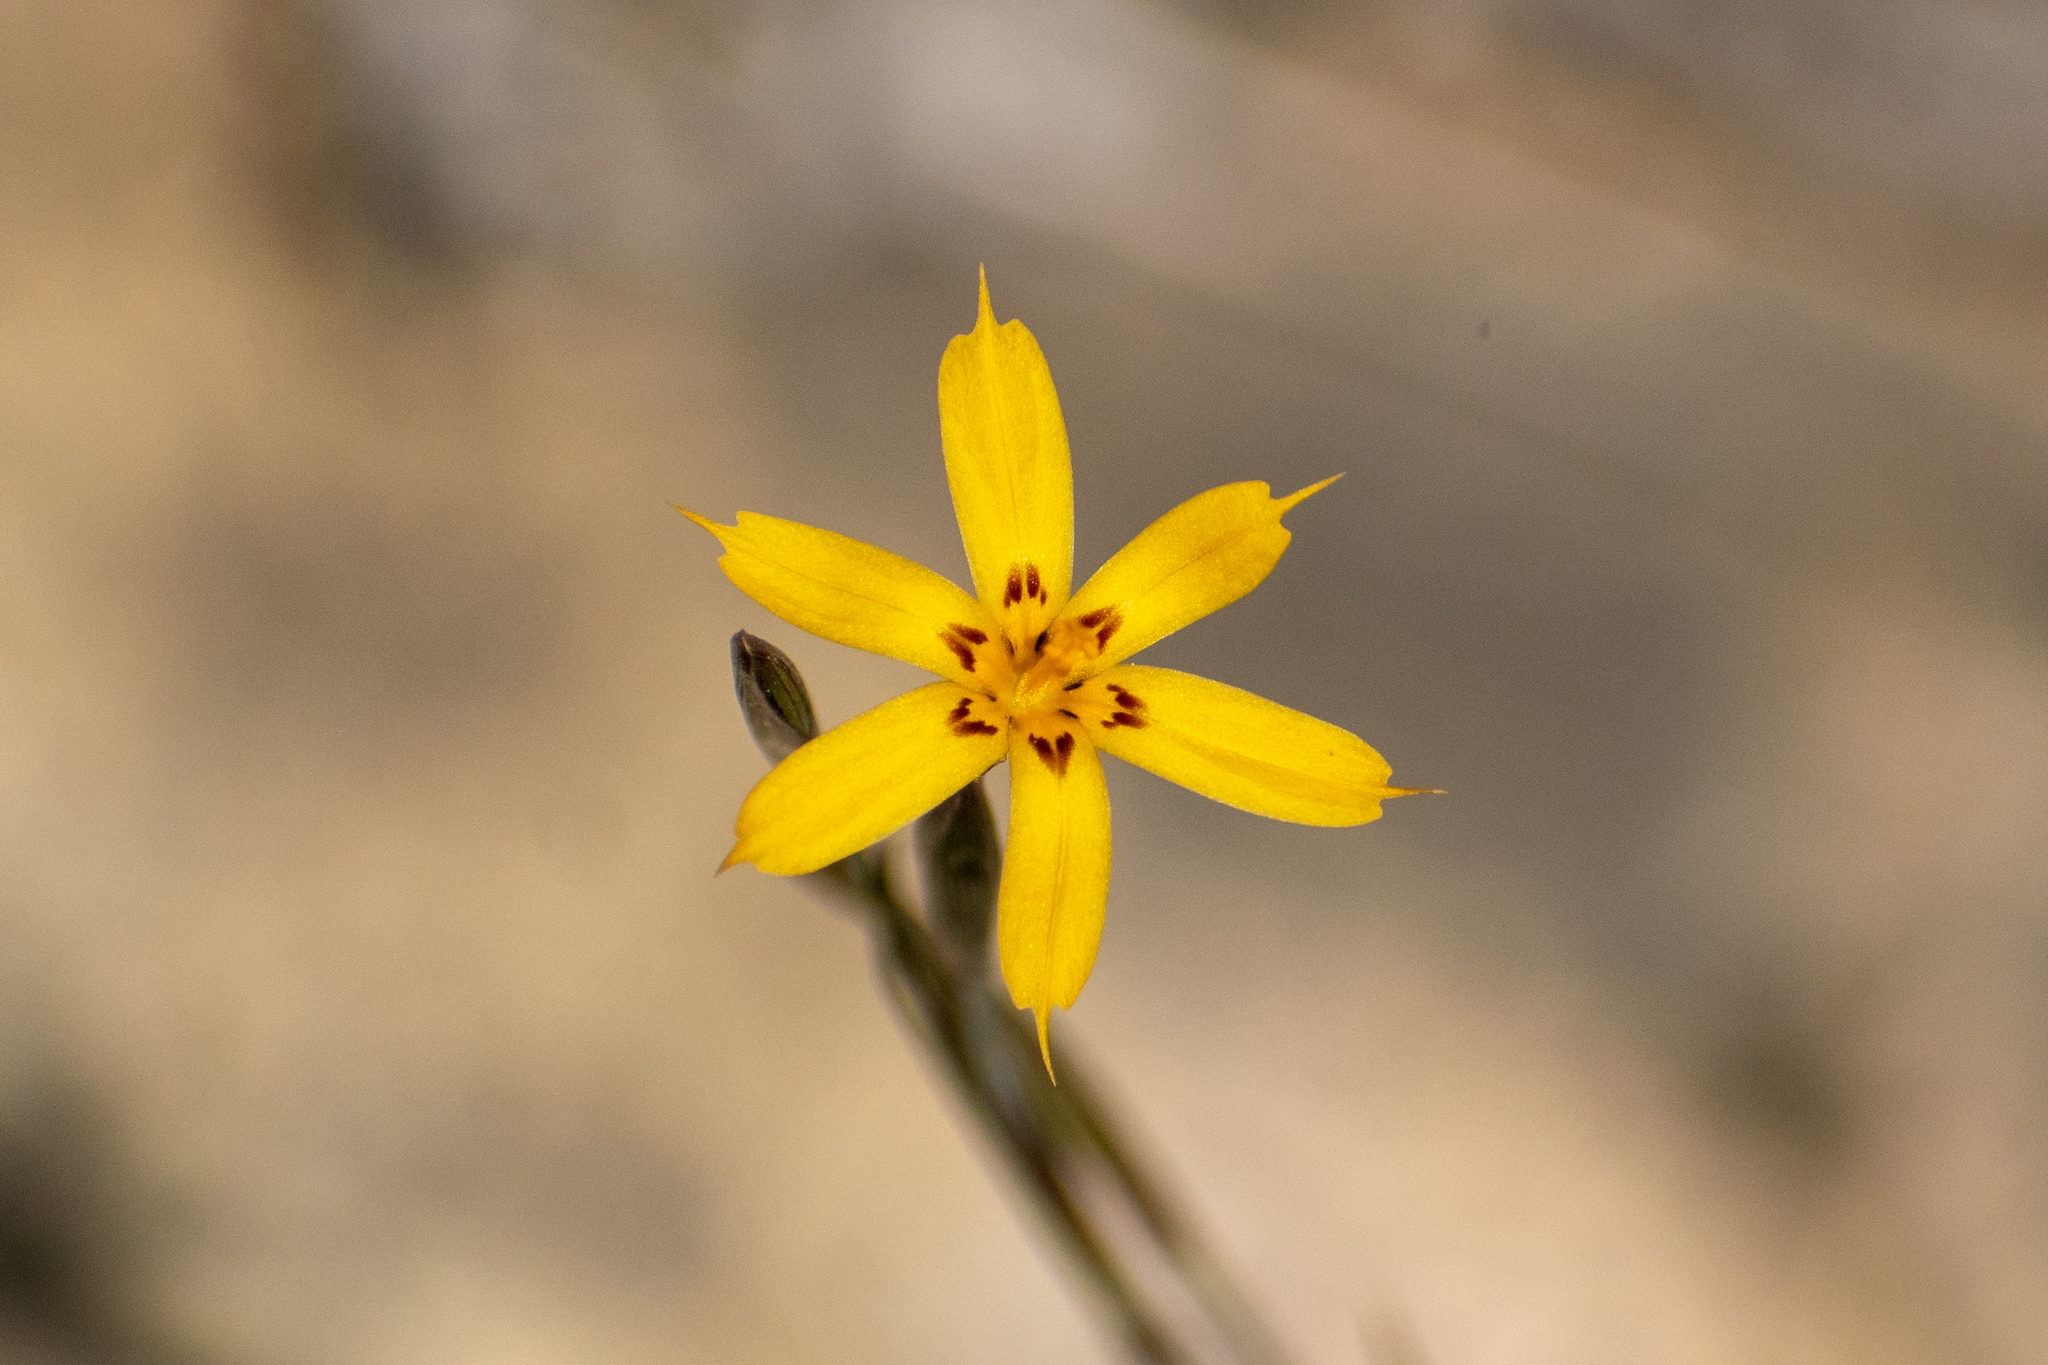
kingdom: Plantae
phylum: Tracheophyta
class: Liliopsida
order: Asparagales
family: Iridaceae
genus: Sisyrinchium
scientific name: Sisyrinchium patagonicum
